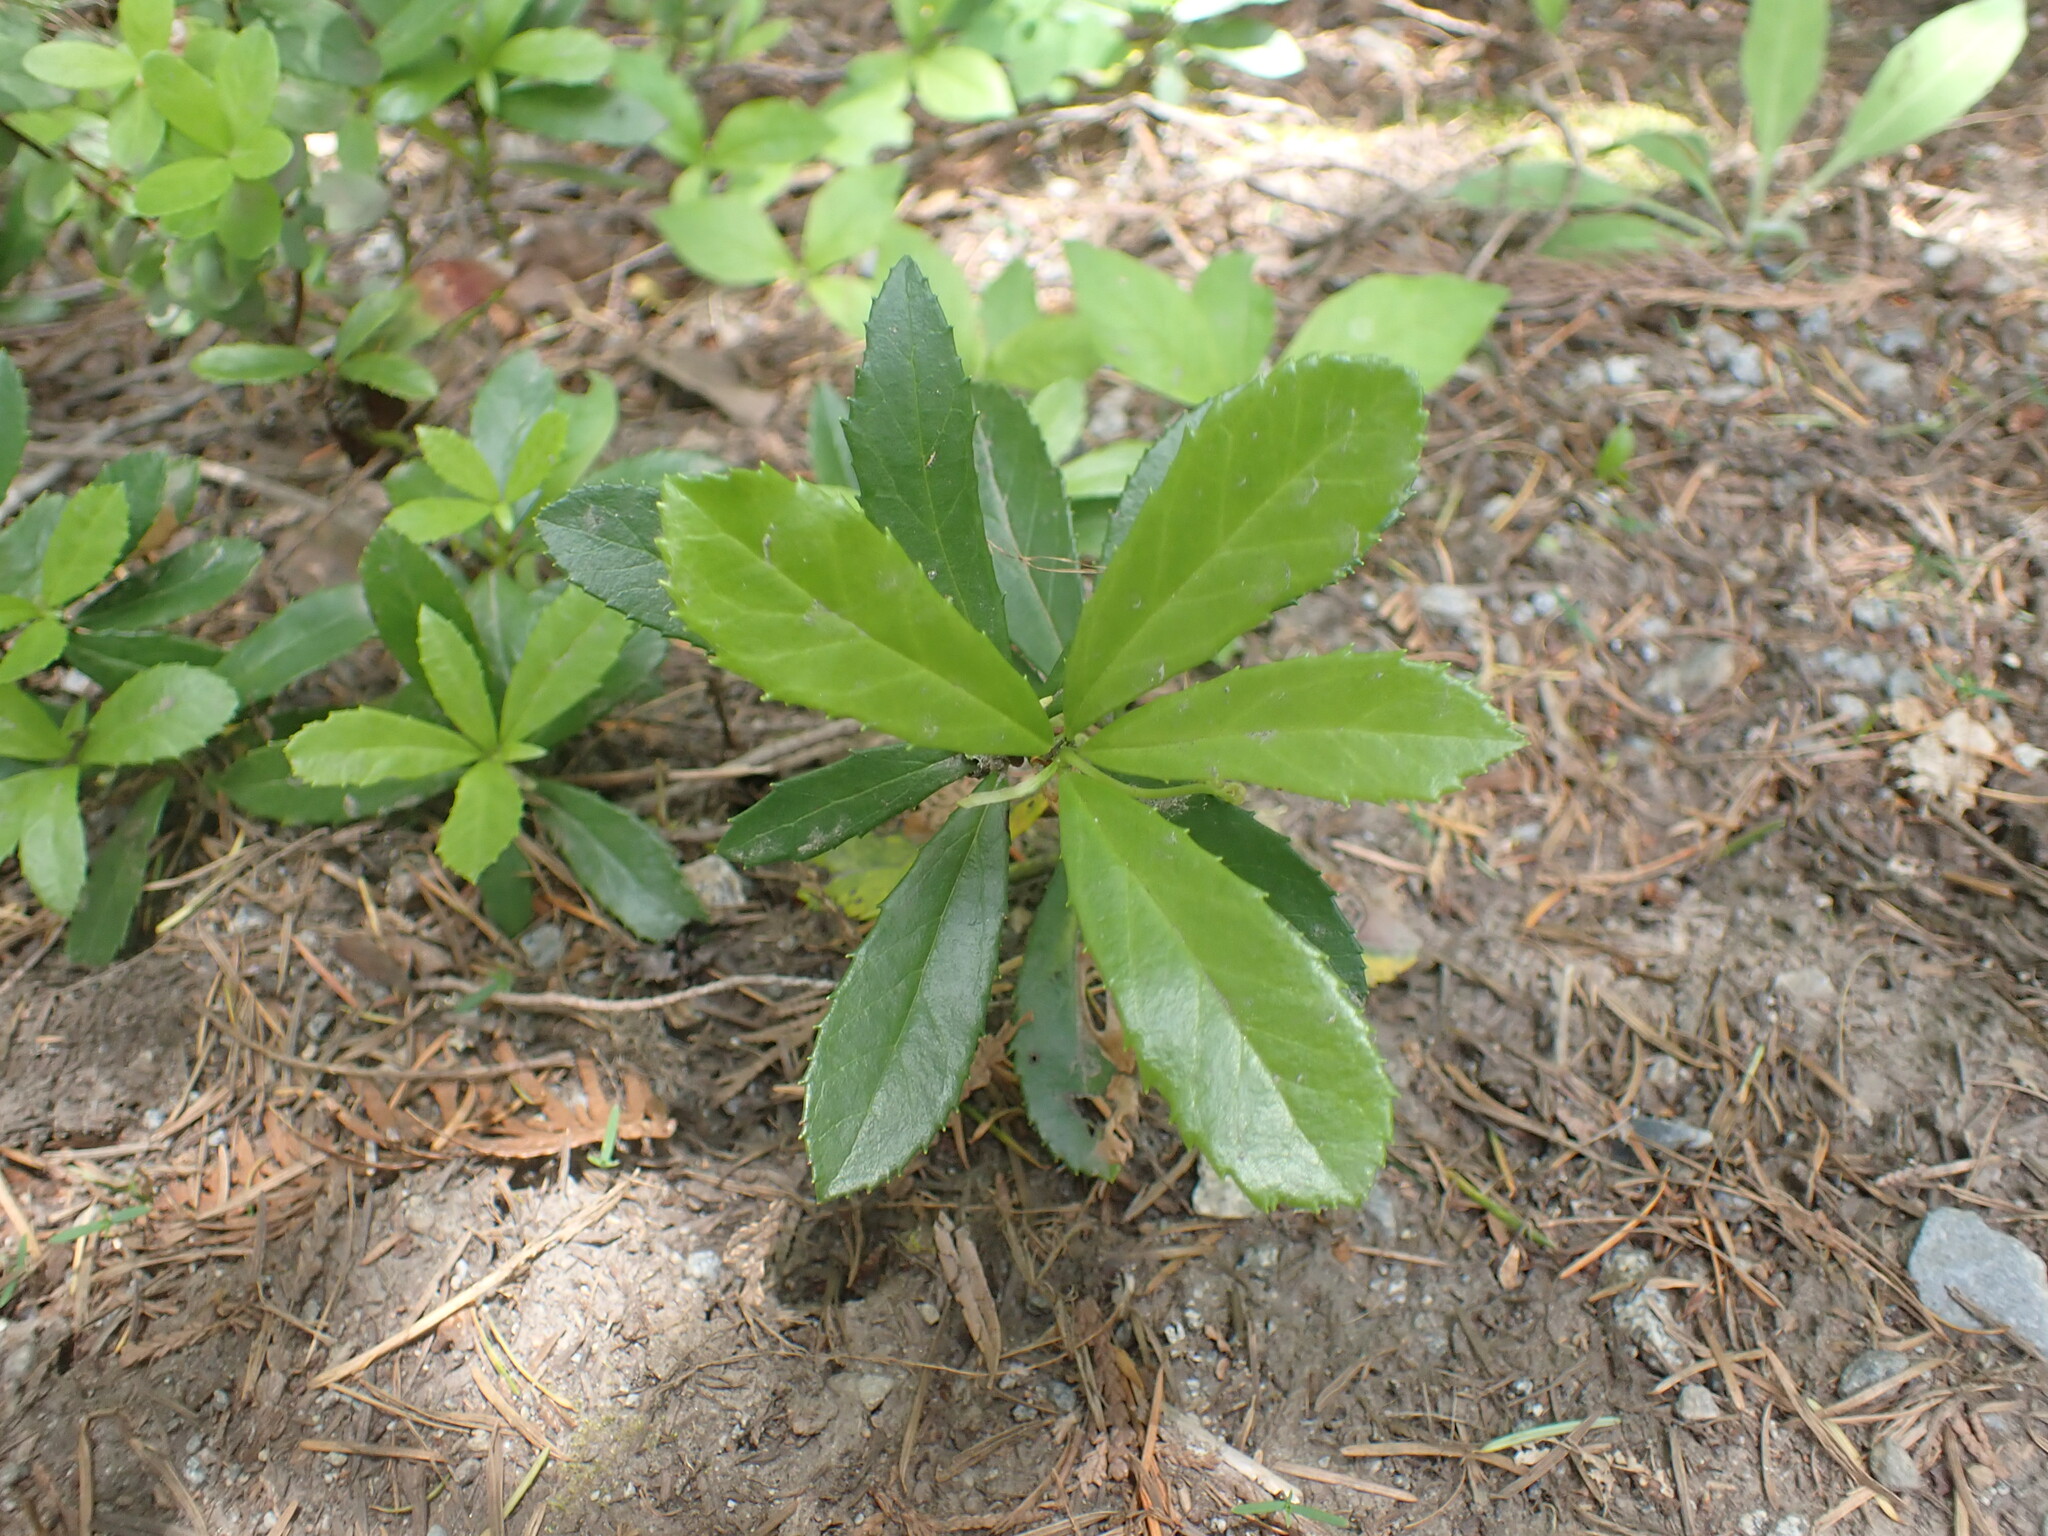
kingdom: Plantae
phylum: Tracheophyta
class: Magnoliopsida
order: Ericales
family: Ericaceae
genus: Chimaphila
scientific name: Chimaphila umbellata
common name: Pipsissewa
